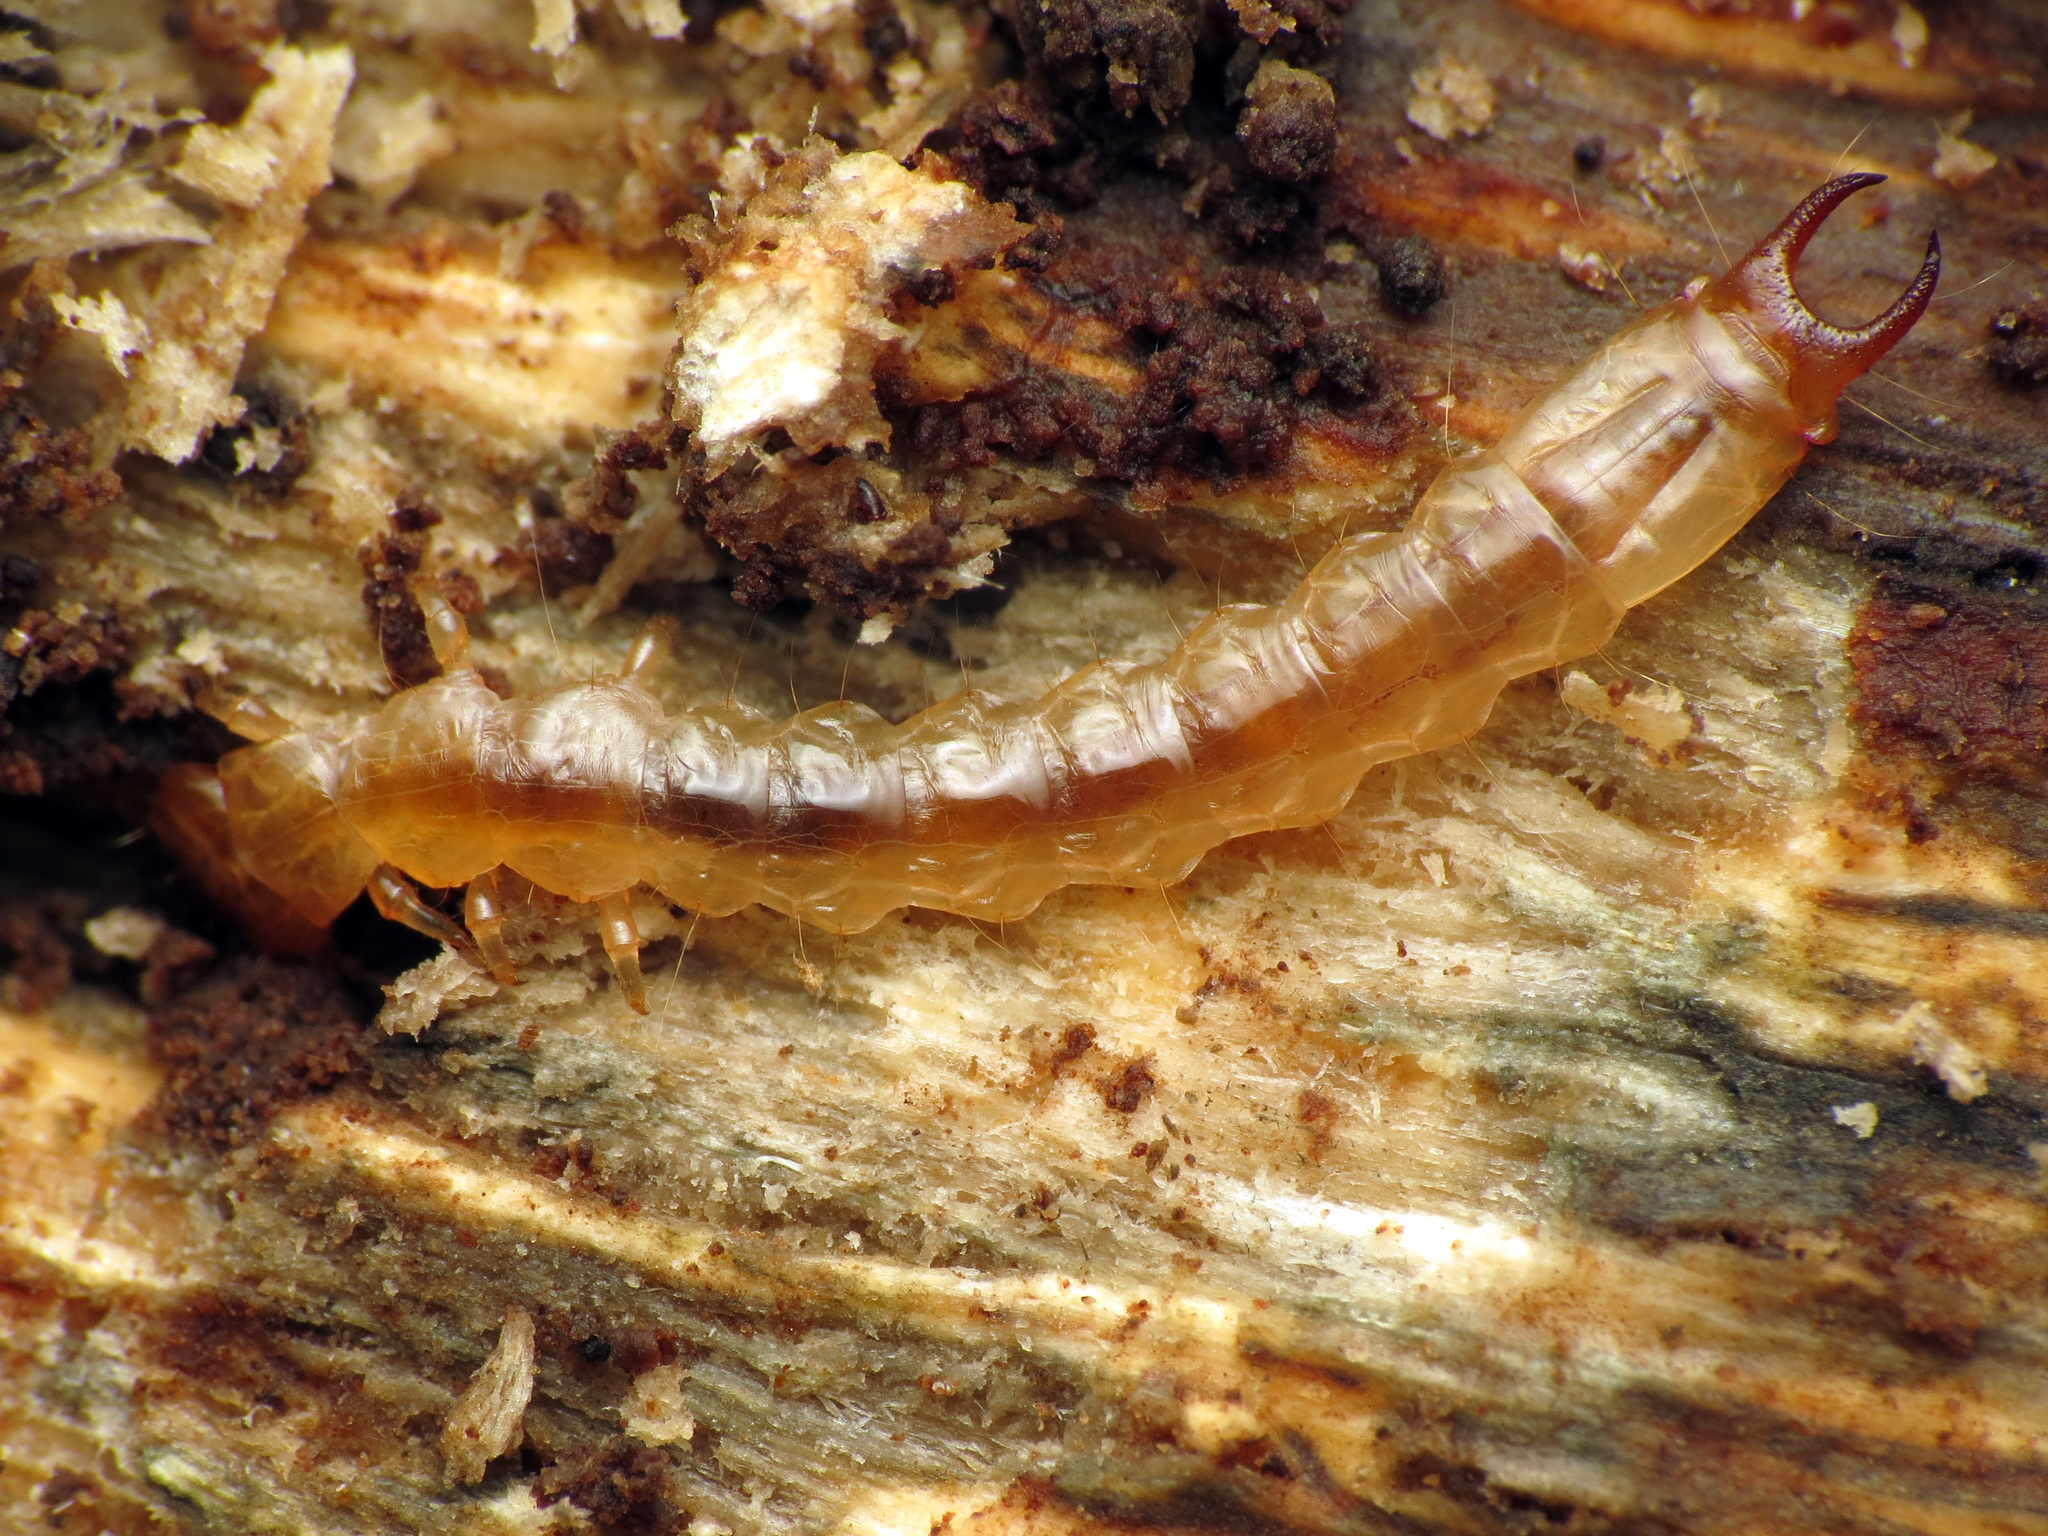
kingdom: Animalia
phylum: Arthropoda
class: Insecta
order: Coleoptera
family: Pyrochroidae
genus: Dendroides
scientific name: Dendroides canadensis
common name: Canada fire-colored beetle
